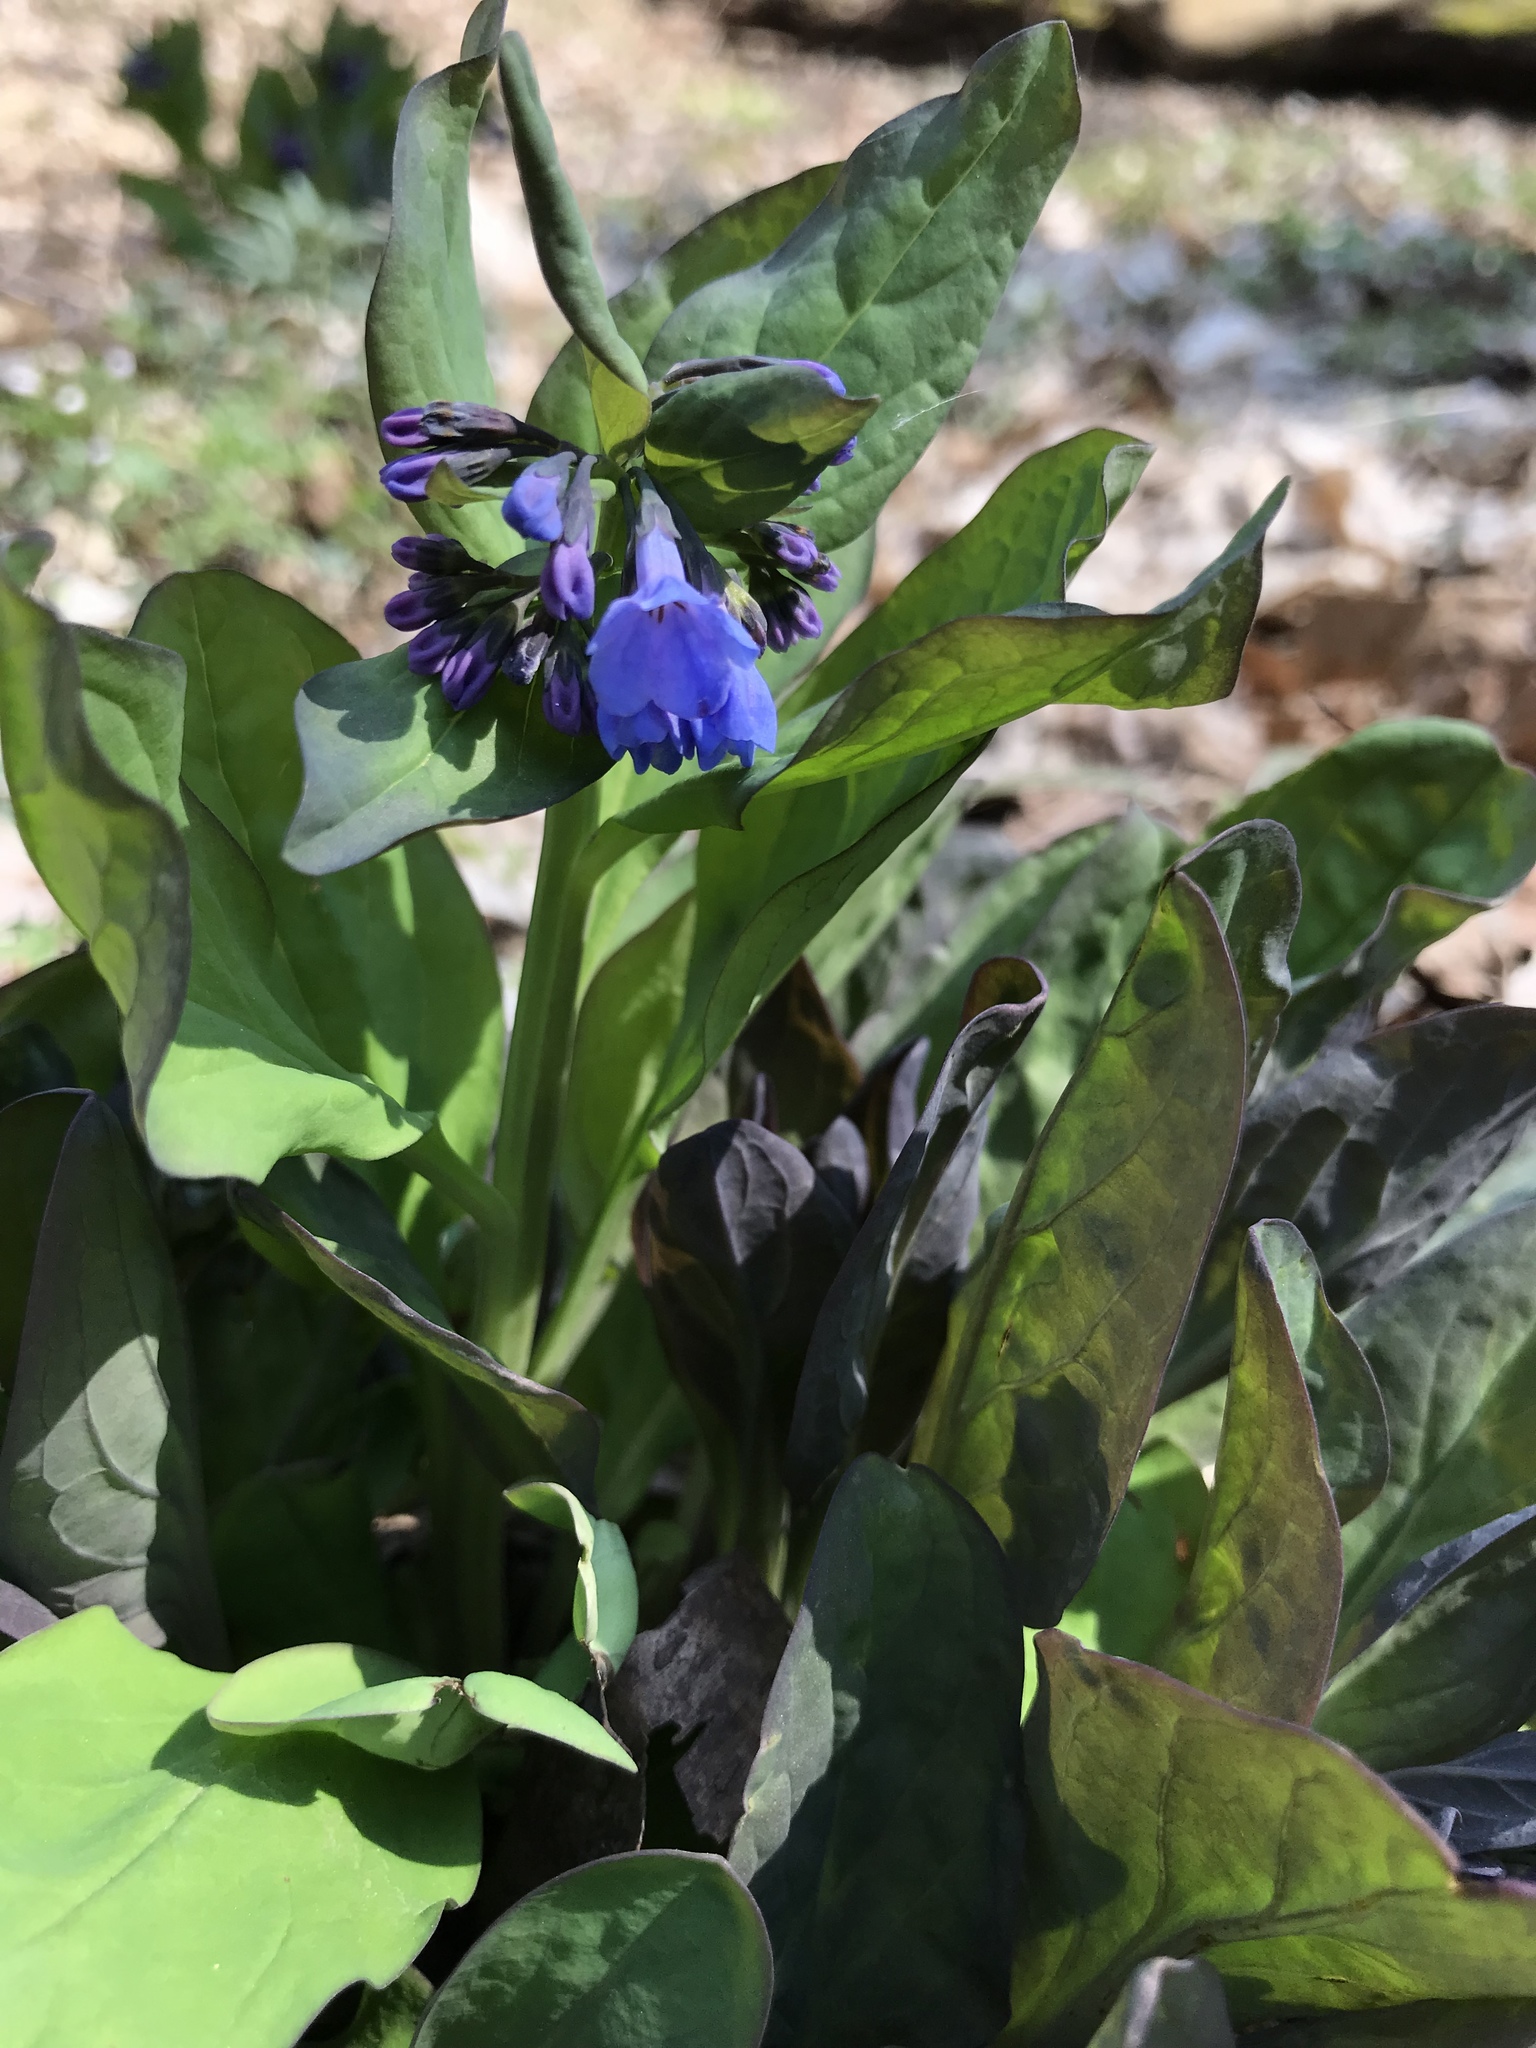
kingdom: Plantae
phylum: Tracheophyta
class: Magnoliopsida
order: Boraginales
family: Boraginaceae
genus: Mertensia
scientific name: Mertensia virginica
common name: Virginia bluebells
